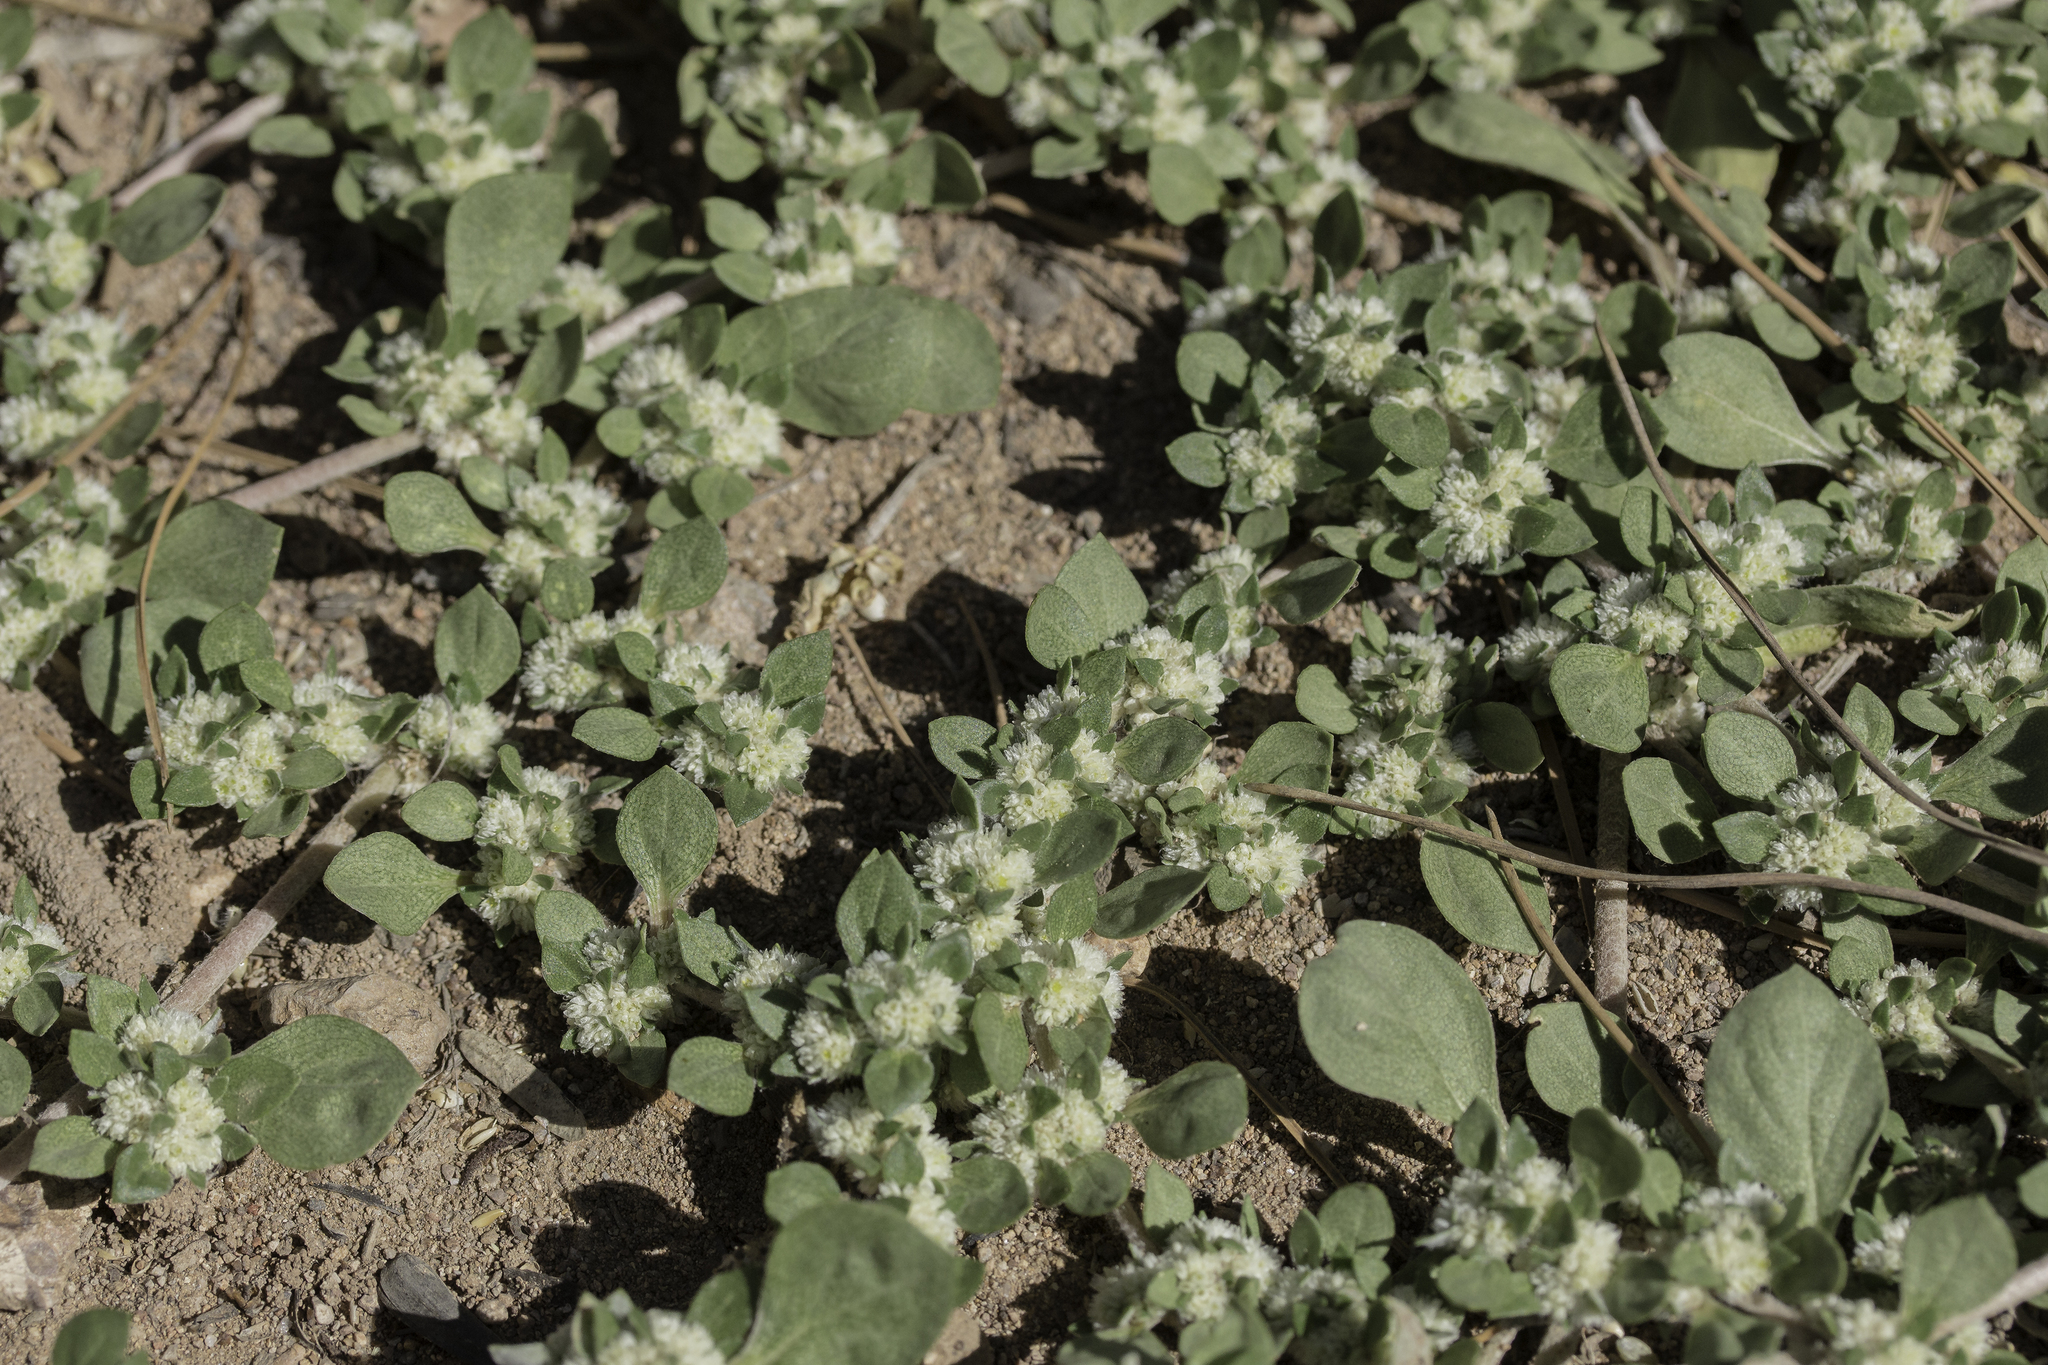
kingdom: Plantae
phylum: Tracheophyta
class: Magnoliopsida
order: Caryophyllales
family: Amaranthaceae
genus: Guilleminea
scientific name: Guilleminea densa
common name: Small matweed
